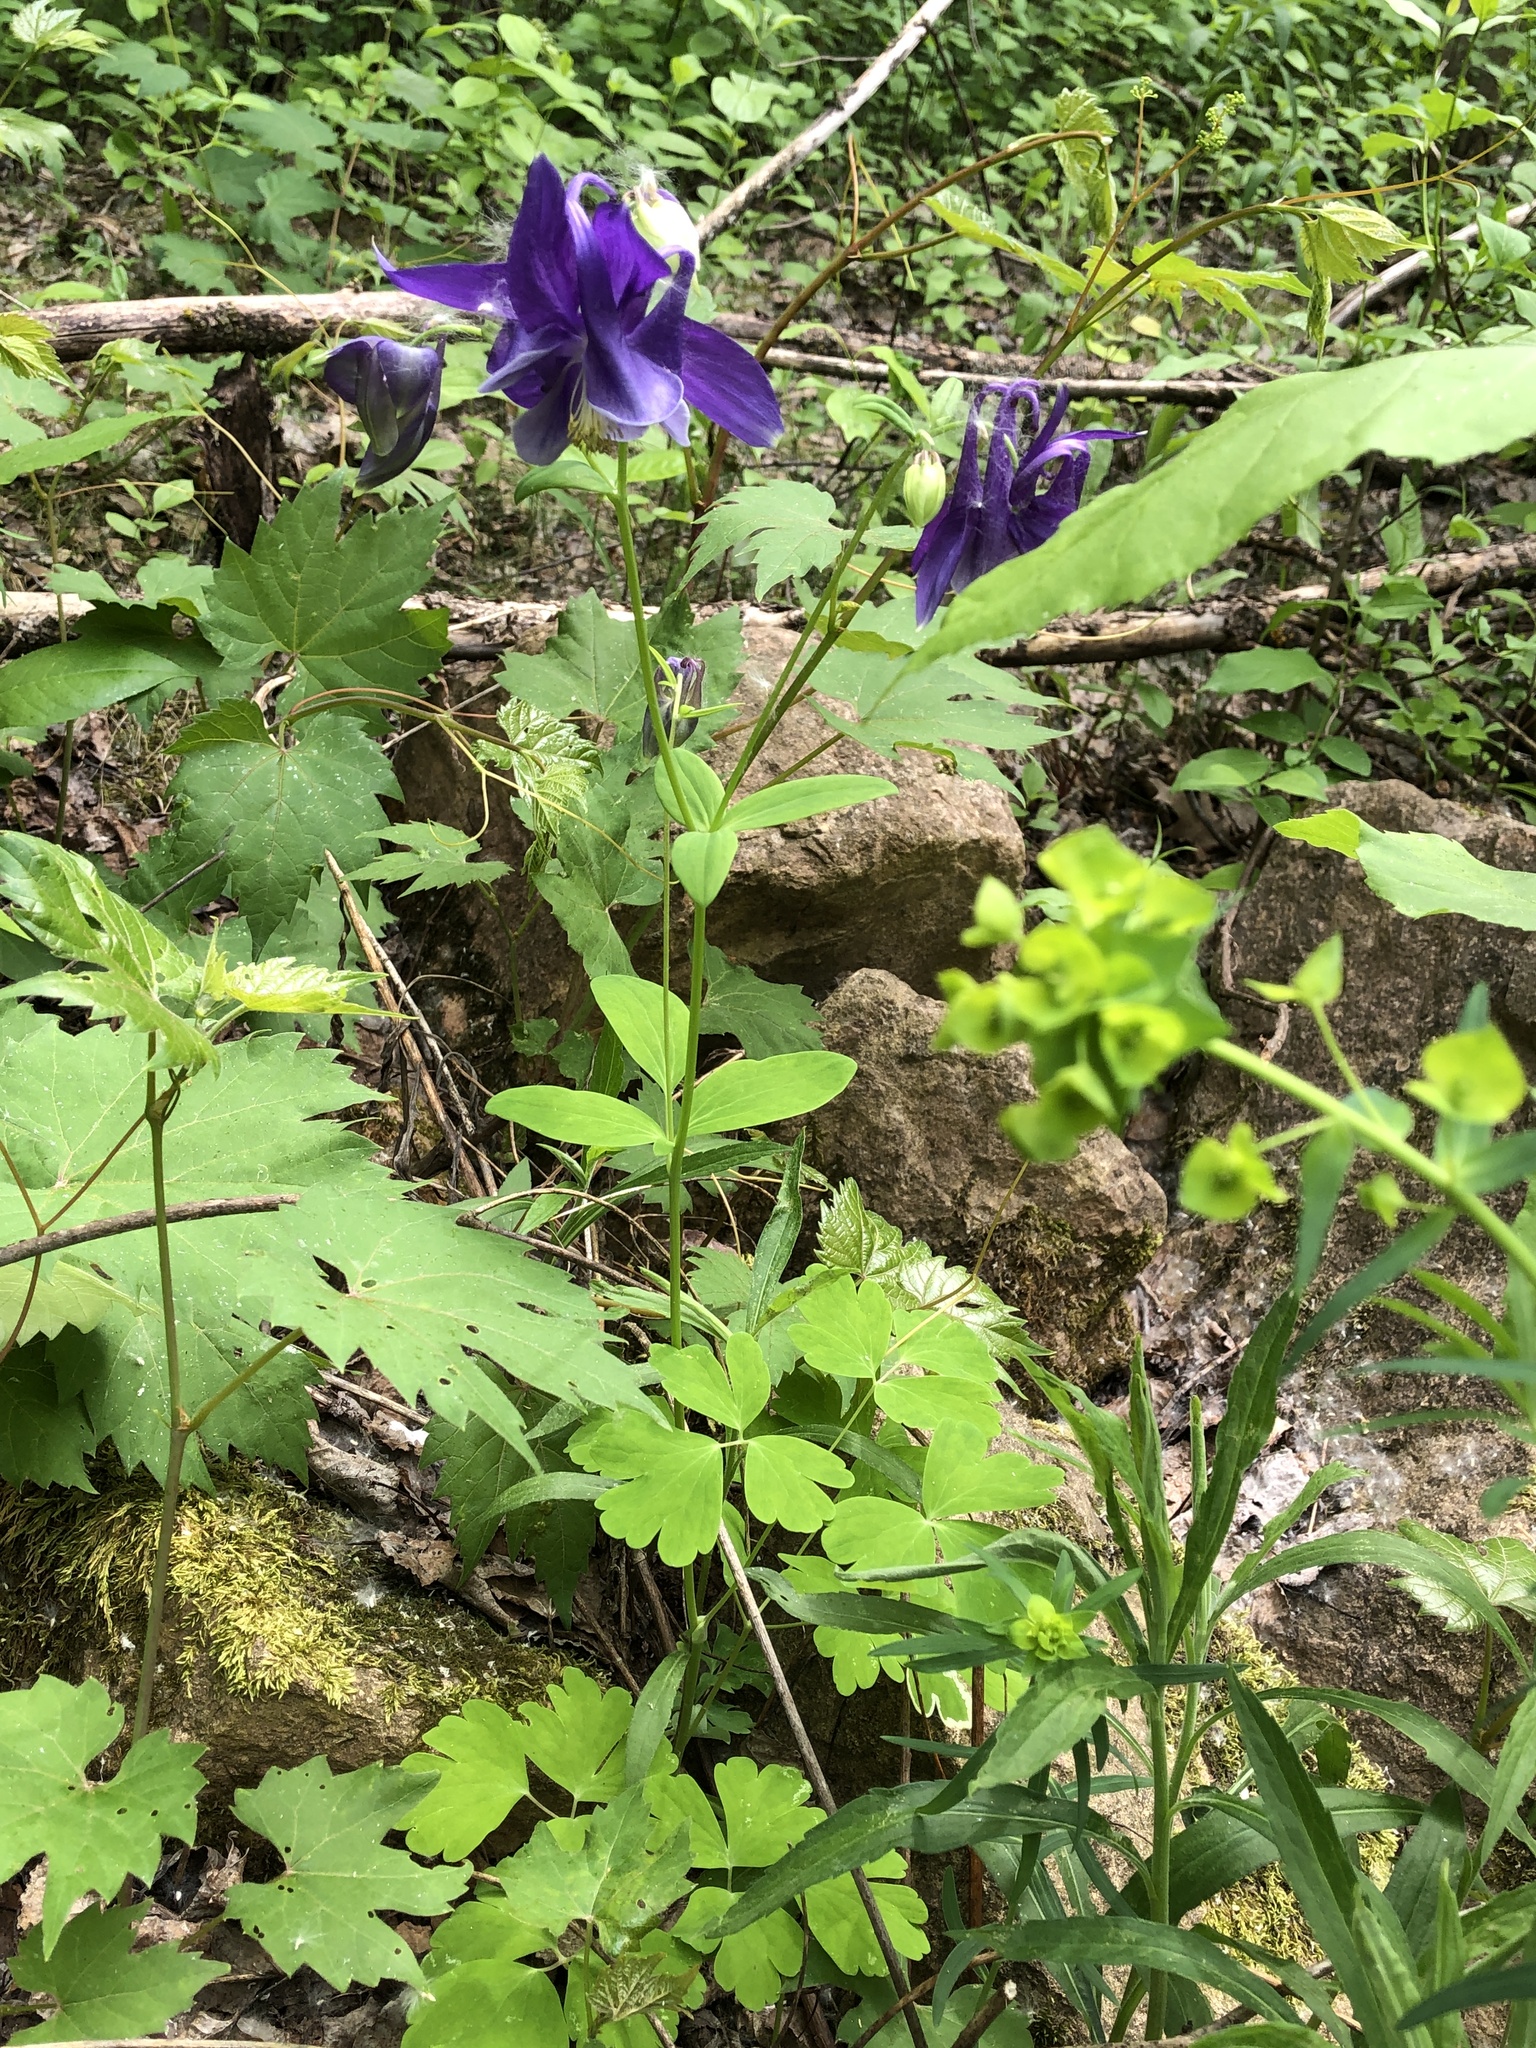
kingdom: Plantae
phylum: Tracheophyta
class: Magnoliopsida
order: Ranunculales
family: Ranunculaceae
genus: Aquilegia
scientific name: Aquilegia vulgaris
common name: Columbine
